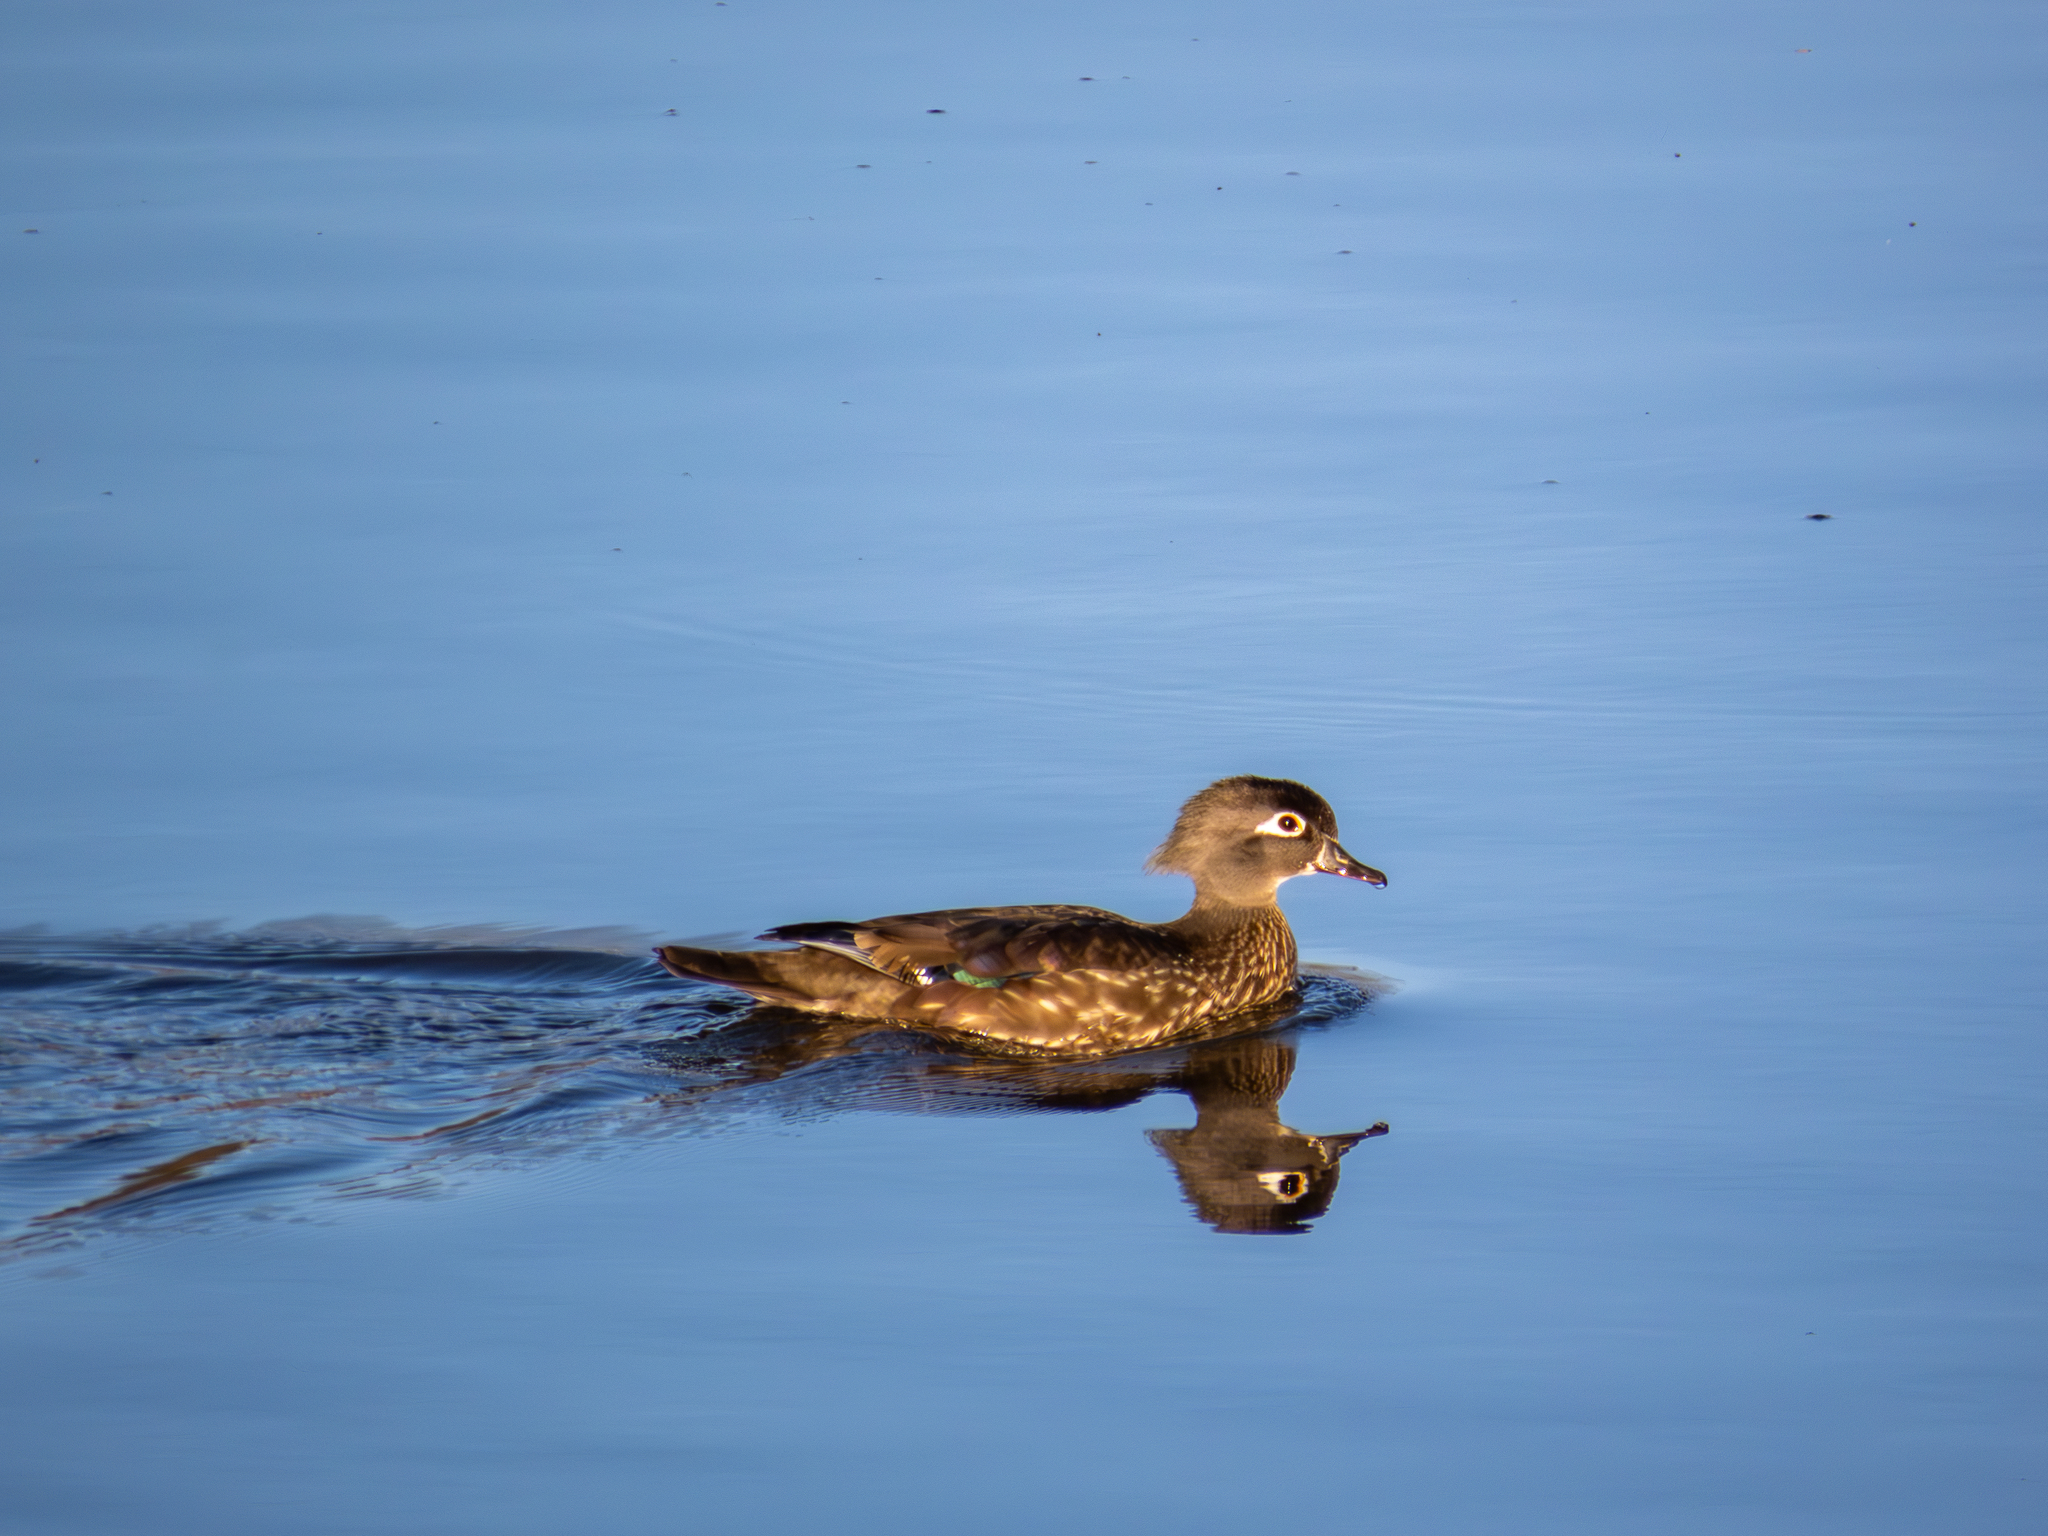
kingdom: Animalia
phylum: Chordata
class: Aves
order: Anseriformes
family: Anatidae
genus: Aix
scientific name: Aix sponsa
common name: Wood duck
